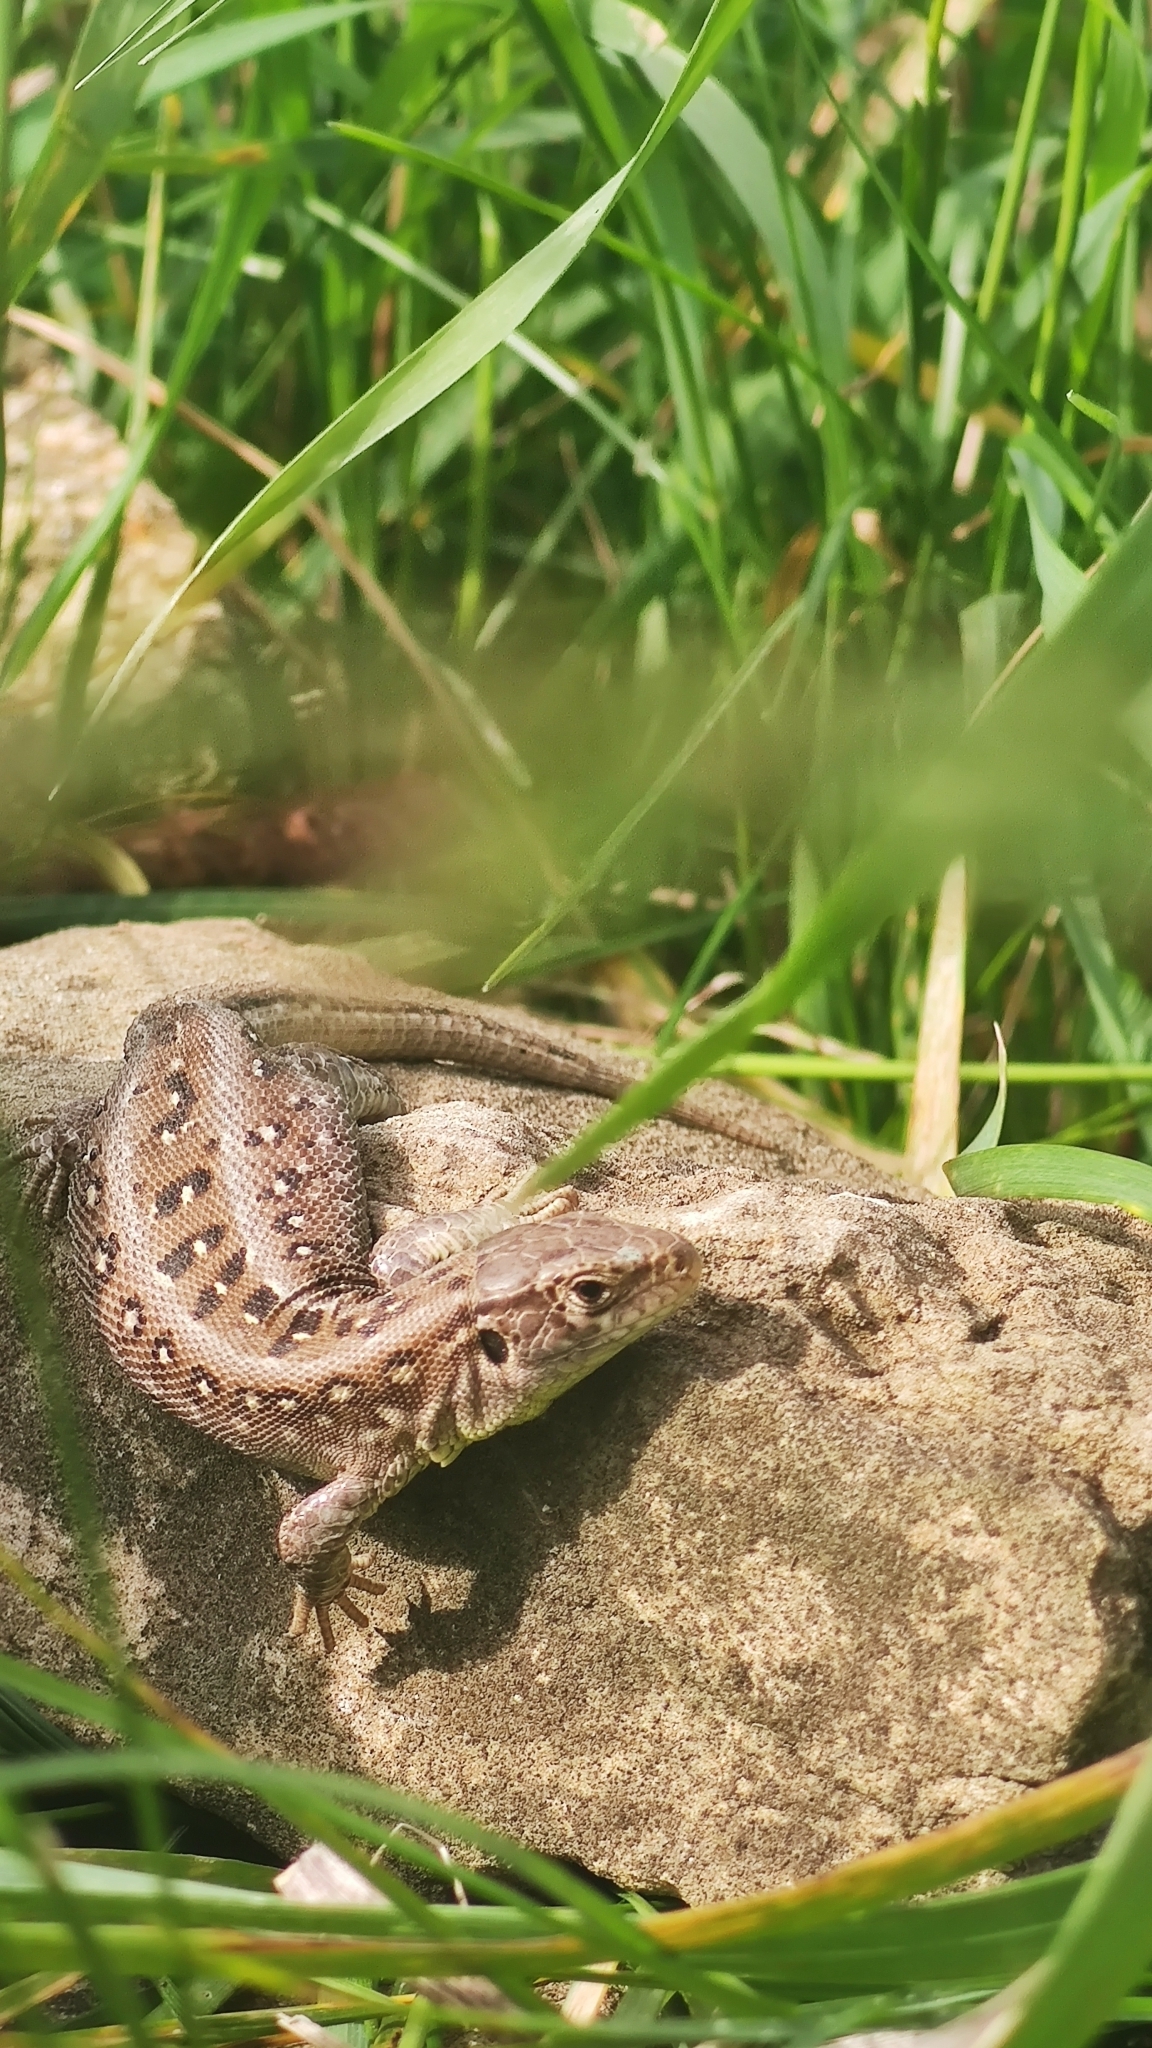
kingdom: Animalia
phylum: Chordata
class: Squamata
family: Lacertidae
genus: Lacerta
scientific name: Lacerta agilis
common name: Sand lizard
